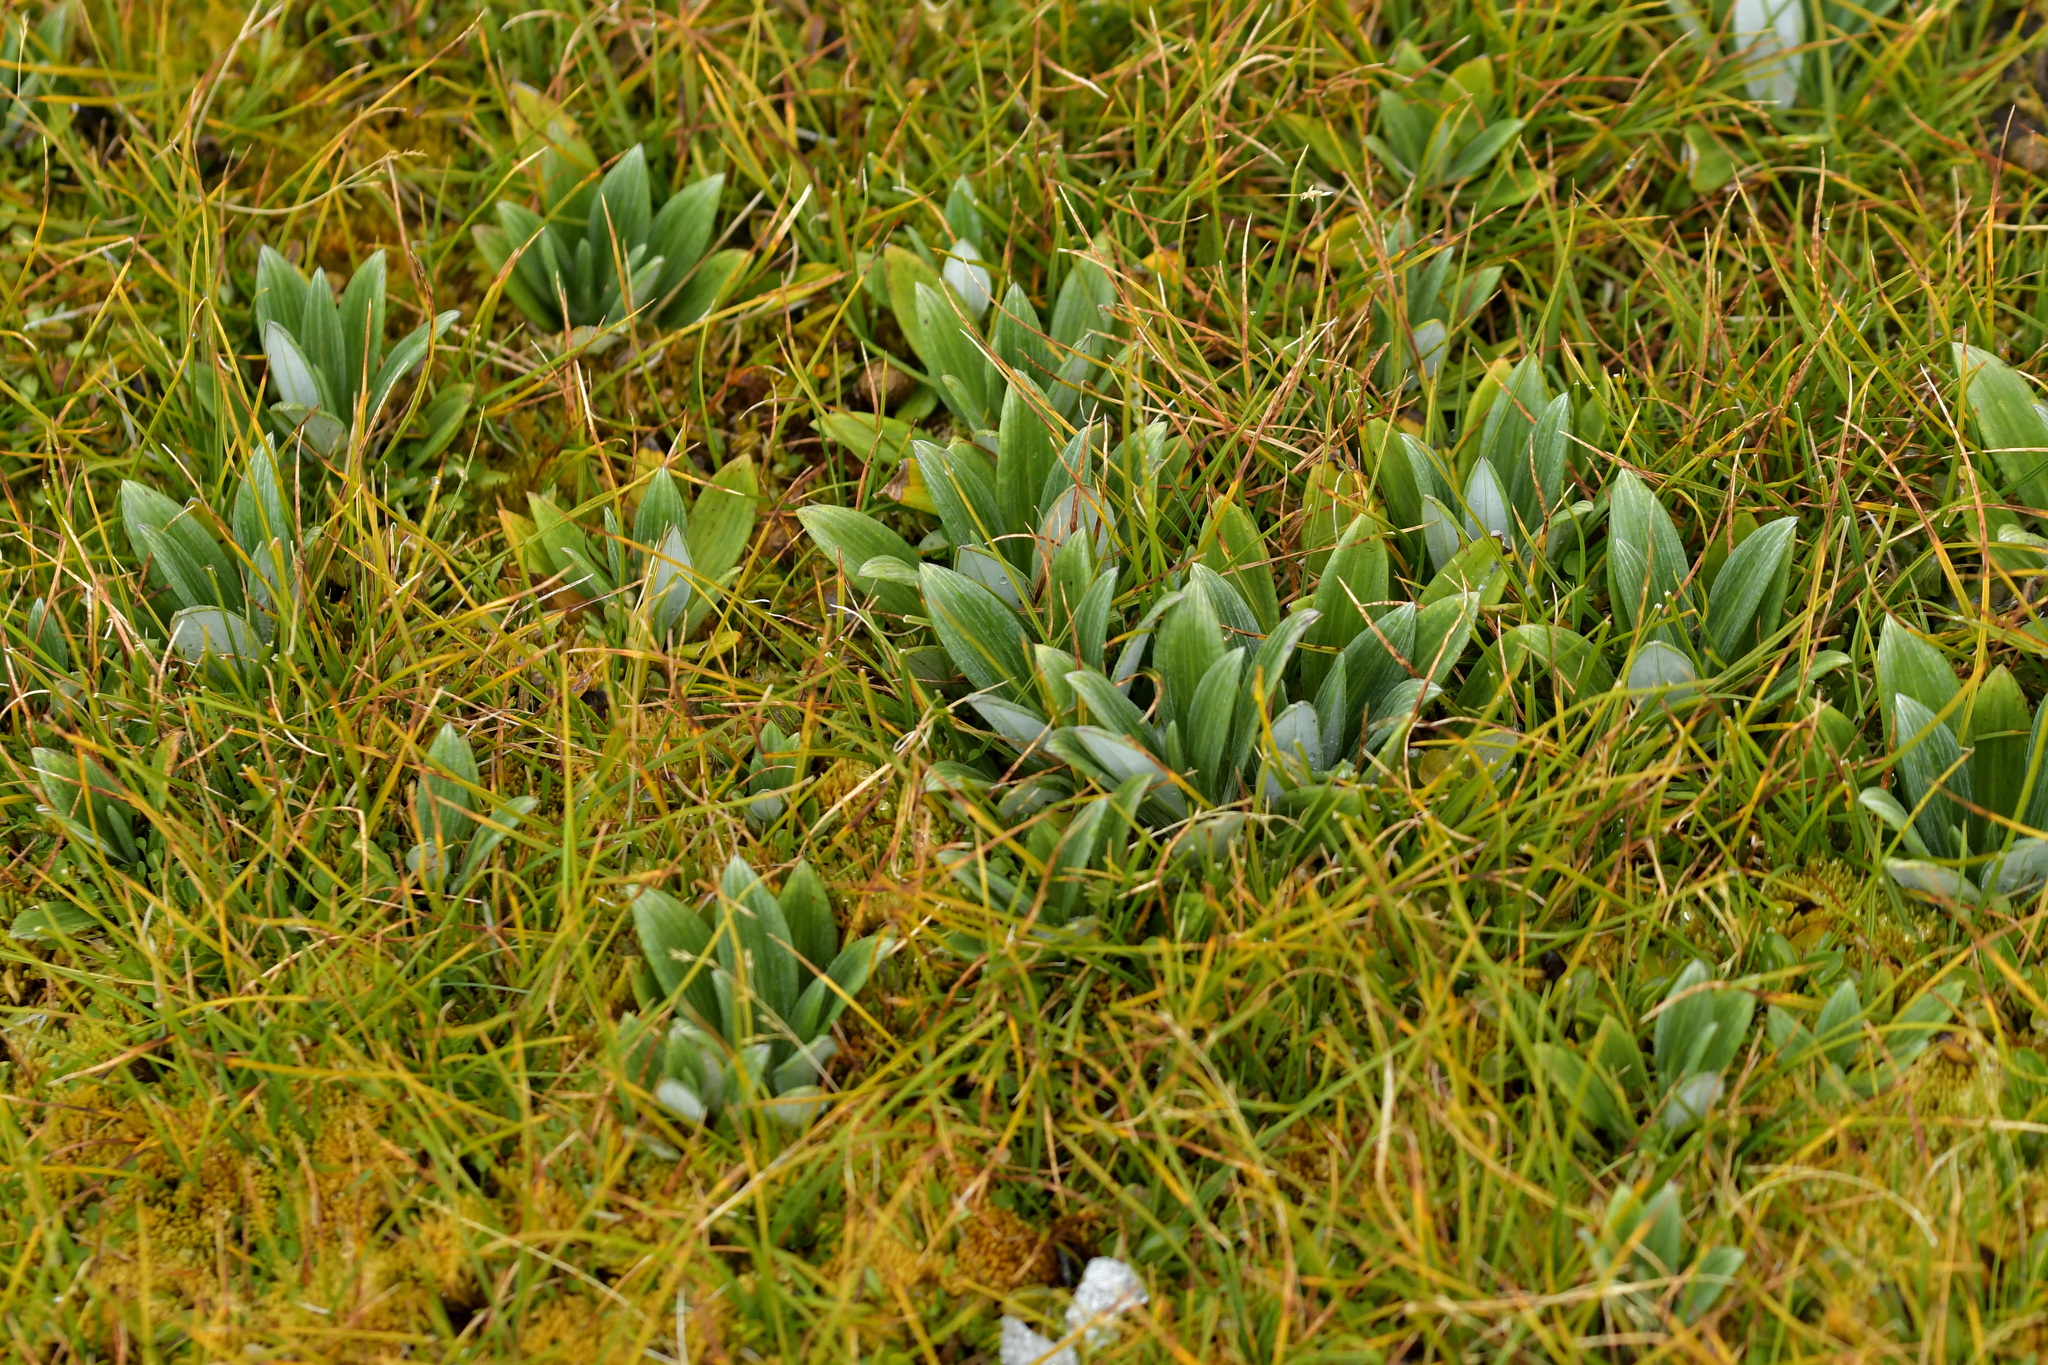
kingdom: Plantae
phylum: Tracheophyta
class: Magnoliopsida
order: Asterales
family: Asteraceae
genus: Celmisia
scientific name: Celmisia haastii
